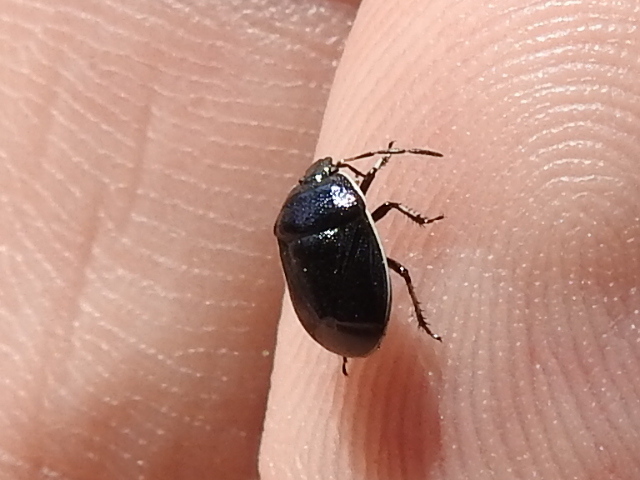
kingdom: Animalia
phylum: Arthropoda
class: Insecta
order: Hemiptera
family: Cydnidae
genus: Sehirus
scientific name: Sehirus cinctus
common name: White-margined burrower bug
